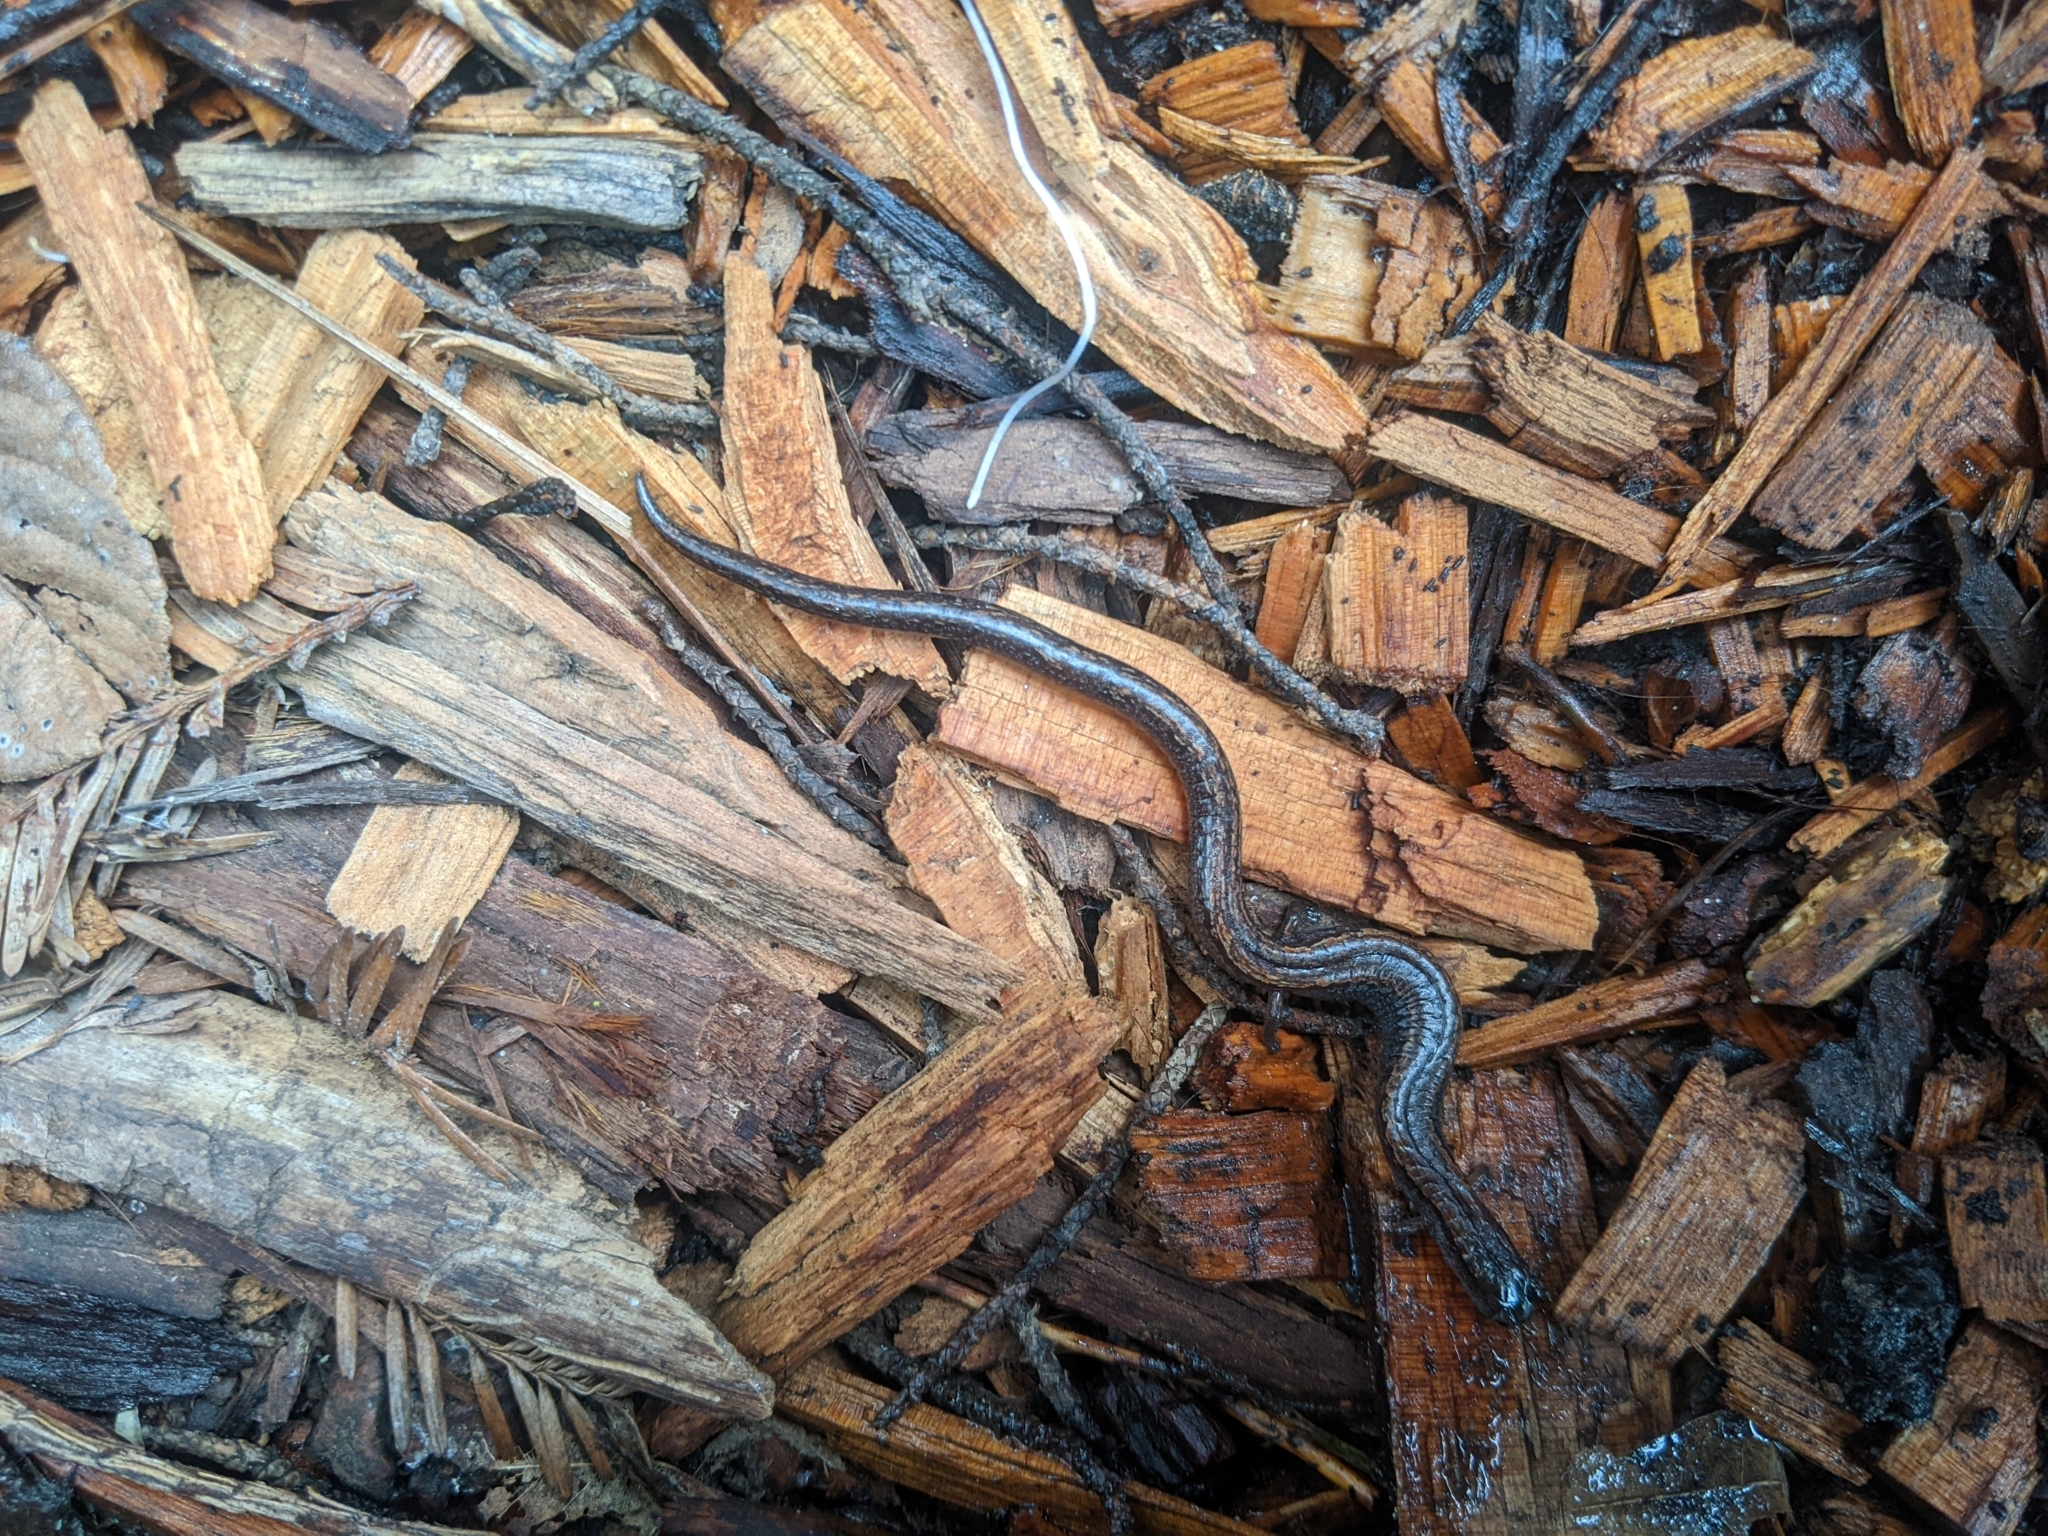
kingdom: Animalia
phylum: Chordata
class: Amphibia
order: Caudata
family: Plethodontidae
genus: Batrachoseps
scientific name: Batrachoseps attenuatus
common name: California slender salamander
